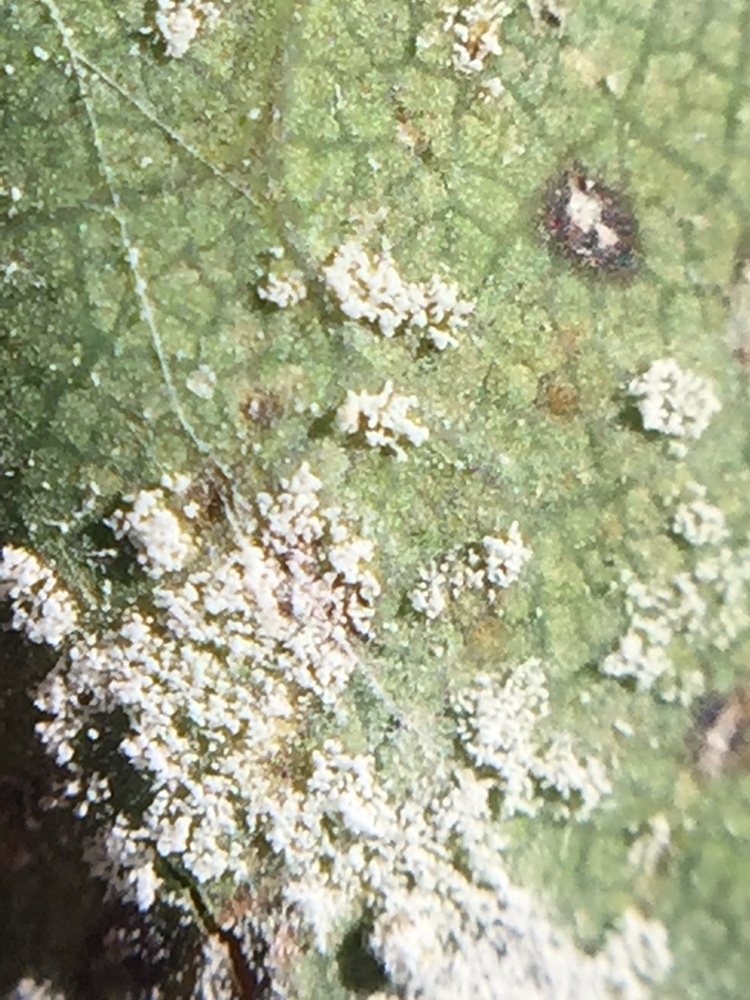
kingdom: Fungi
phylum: Basidiomycota
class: Exobasidiomycetes
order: Microstromatales
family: Microstromataceae
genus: Microstroma
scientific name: Microstroma album
